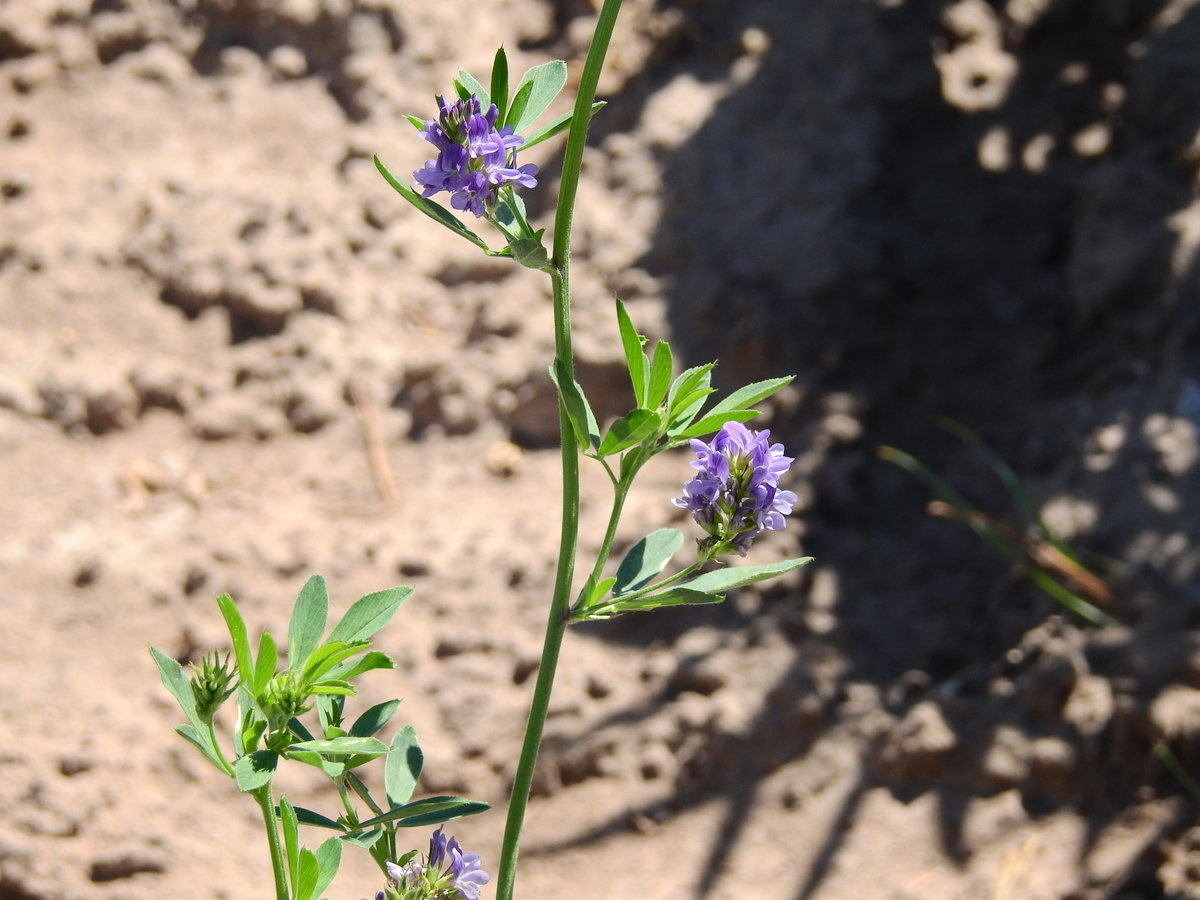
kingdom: Plantae
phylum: Tracheophyta
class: Magnoliopsida
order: Fabales
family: Fabaceae
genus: Medicago
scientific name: Medicago sativa
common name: Alfalfa
